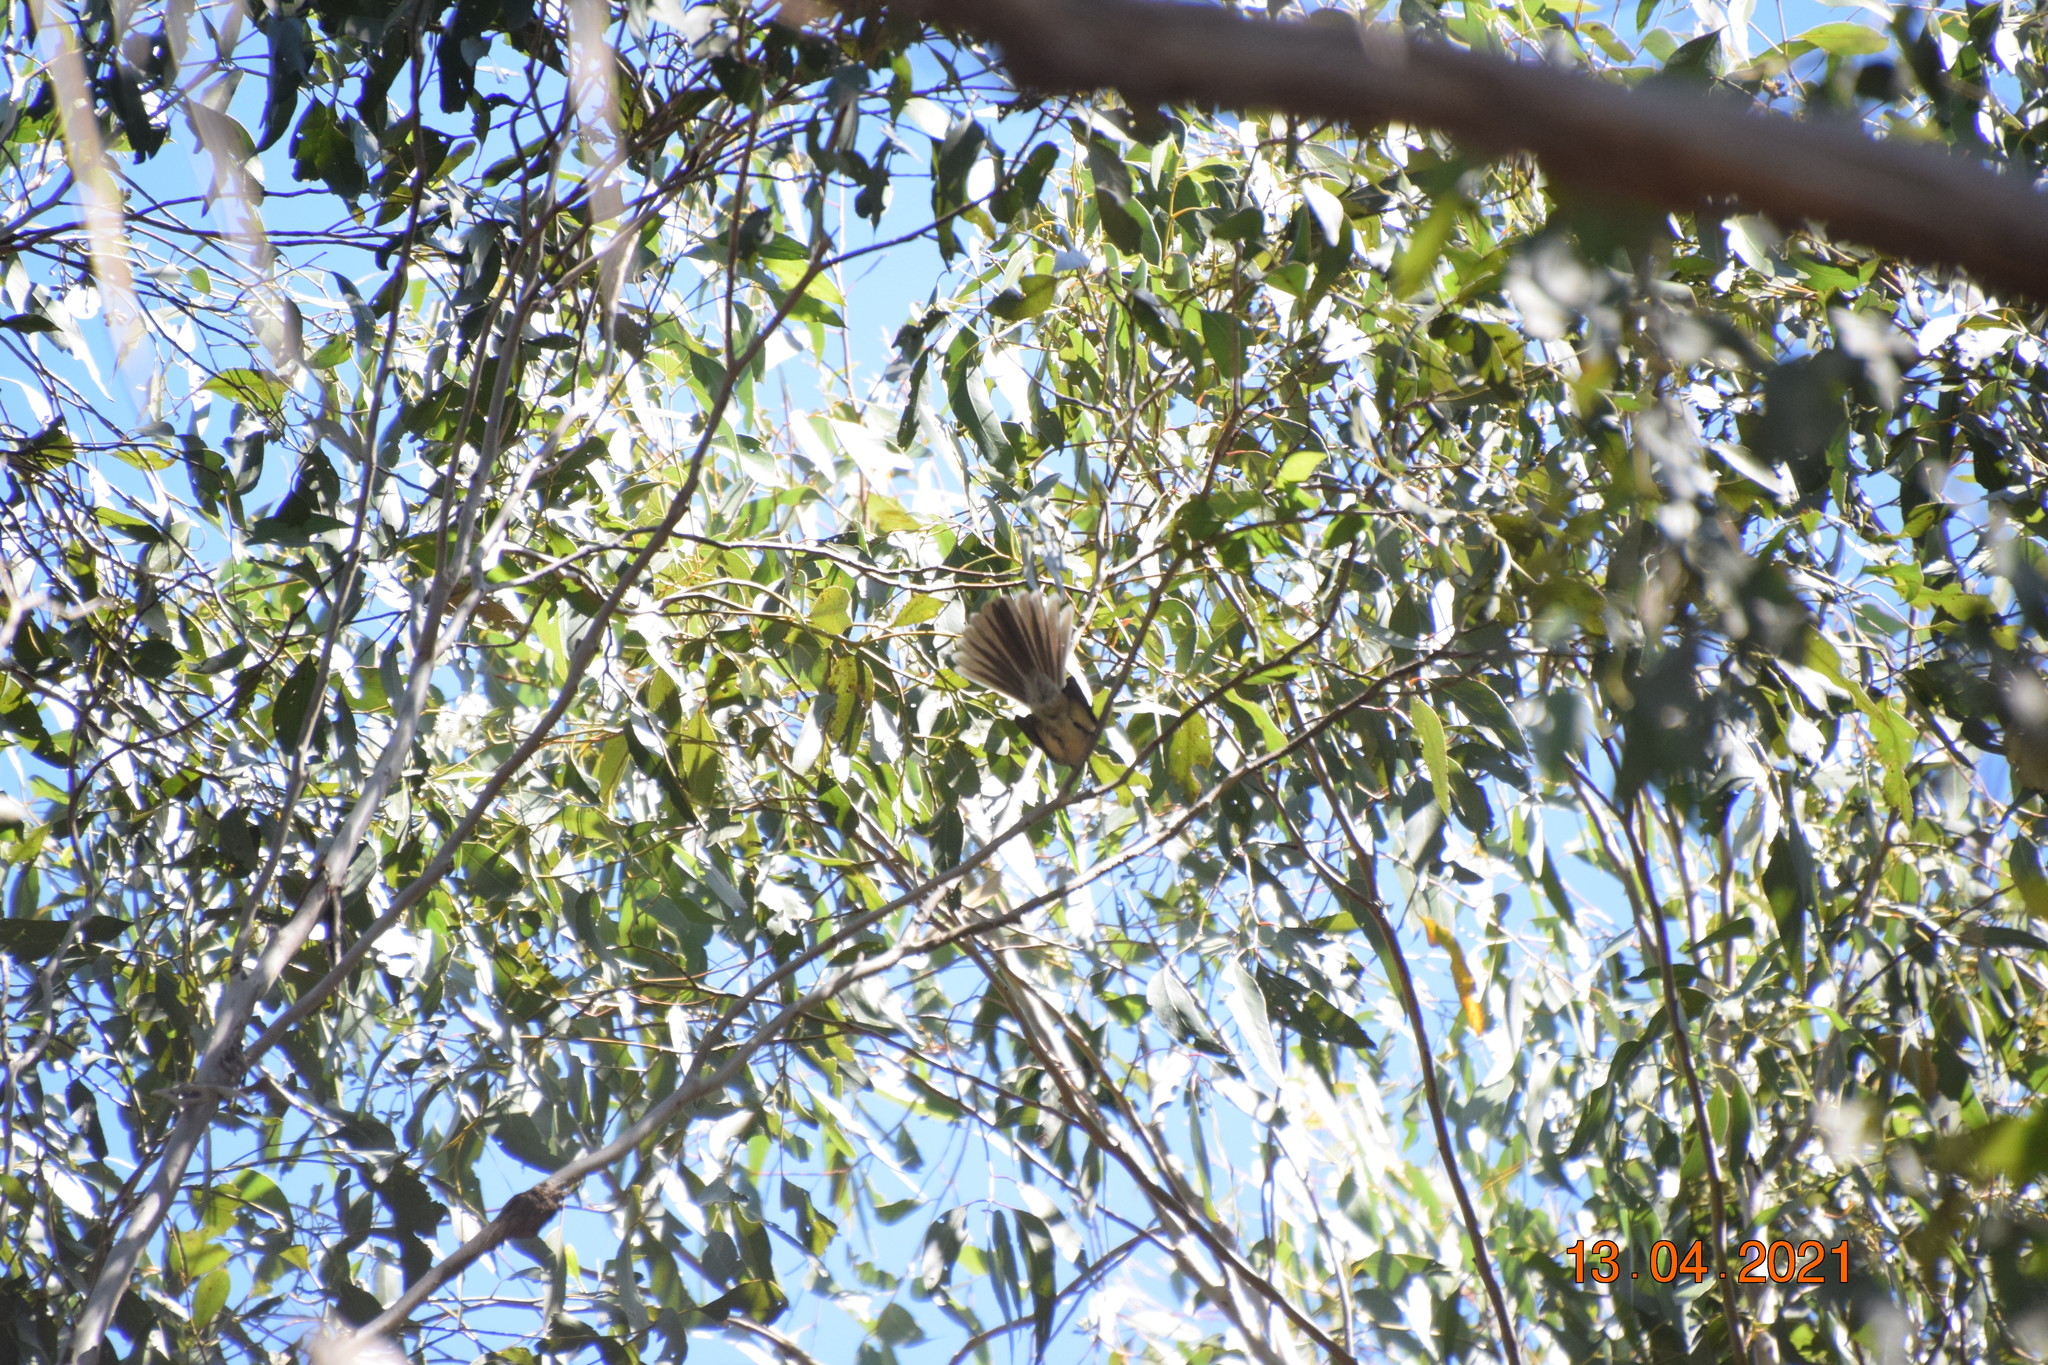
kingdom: Animalia
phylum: Chordata
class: Aves
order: Passeriformes
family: Rhipiduridae
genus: Rhipidura
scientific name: Rhipidura albiscapa
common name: Grey fantail
